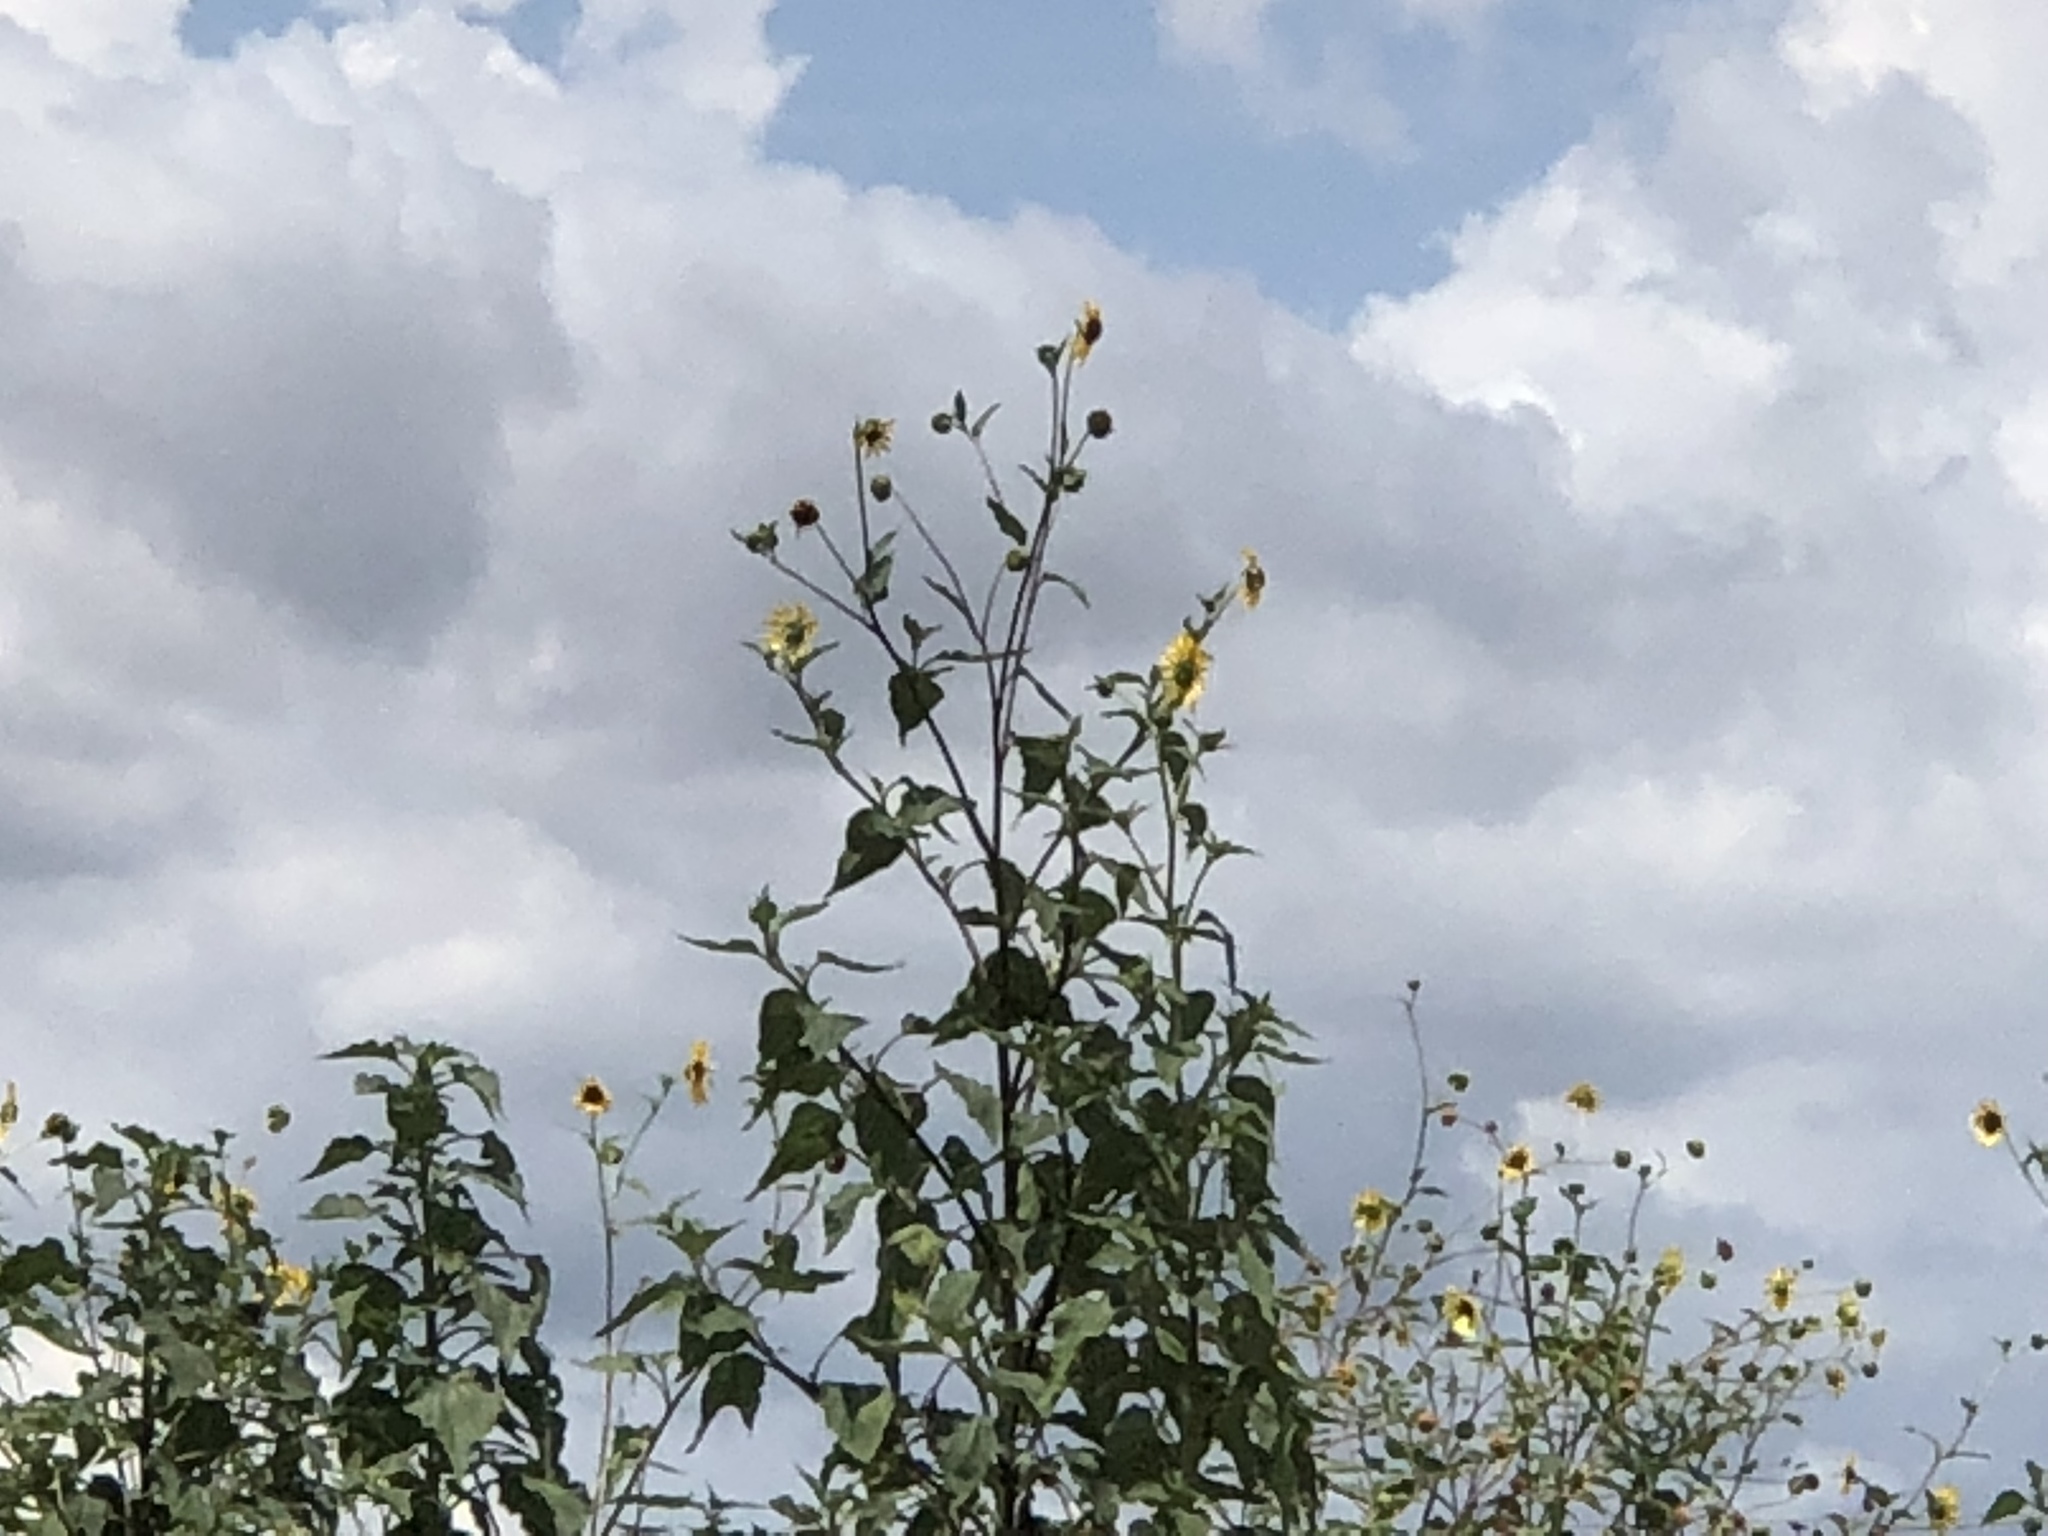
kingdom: Plantae
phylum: Tracheophyta
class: Magnoliopsida
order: Asterales
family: Asteraceae
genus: Helianthus
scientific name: Helianthus annuus
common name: Sunflower
